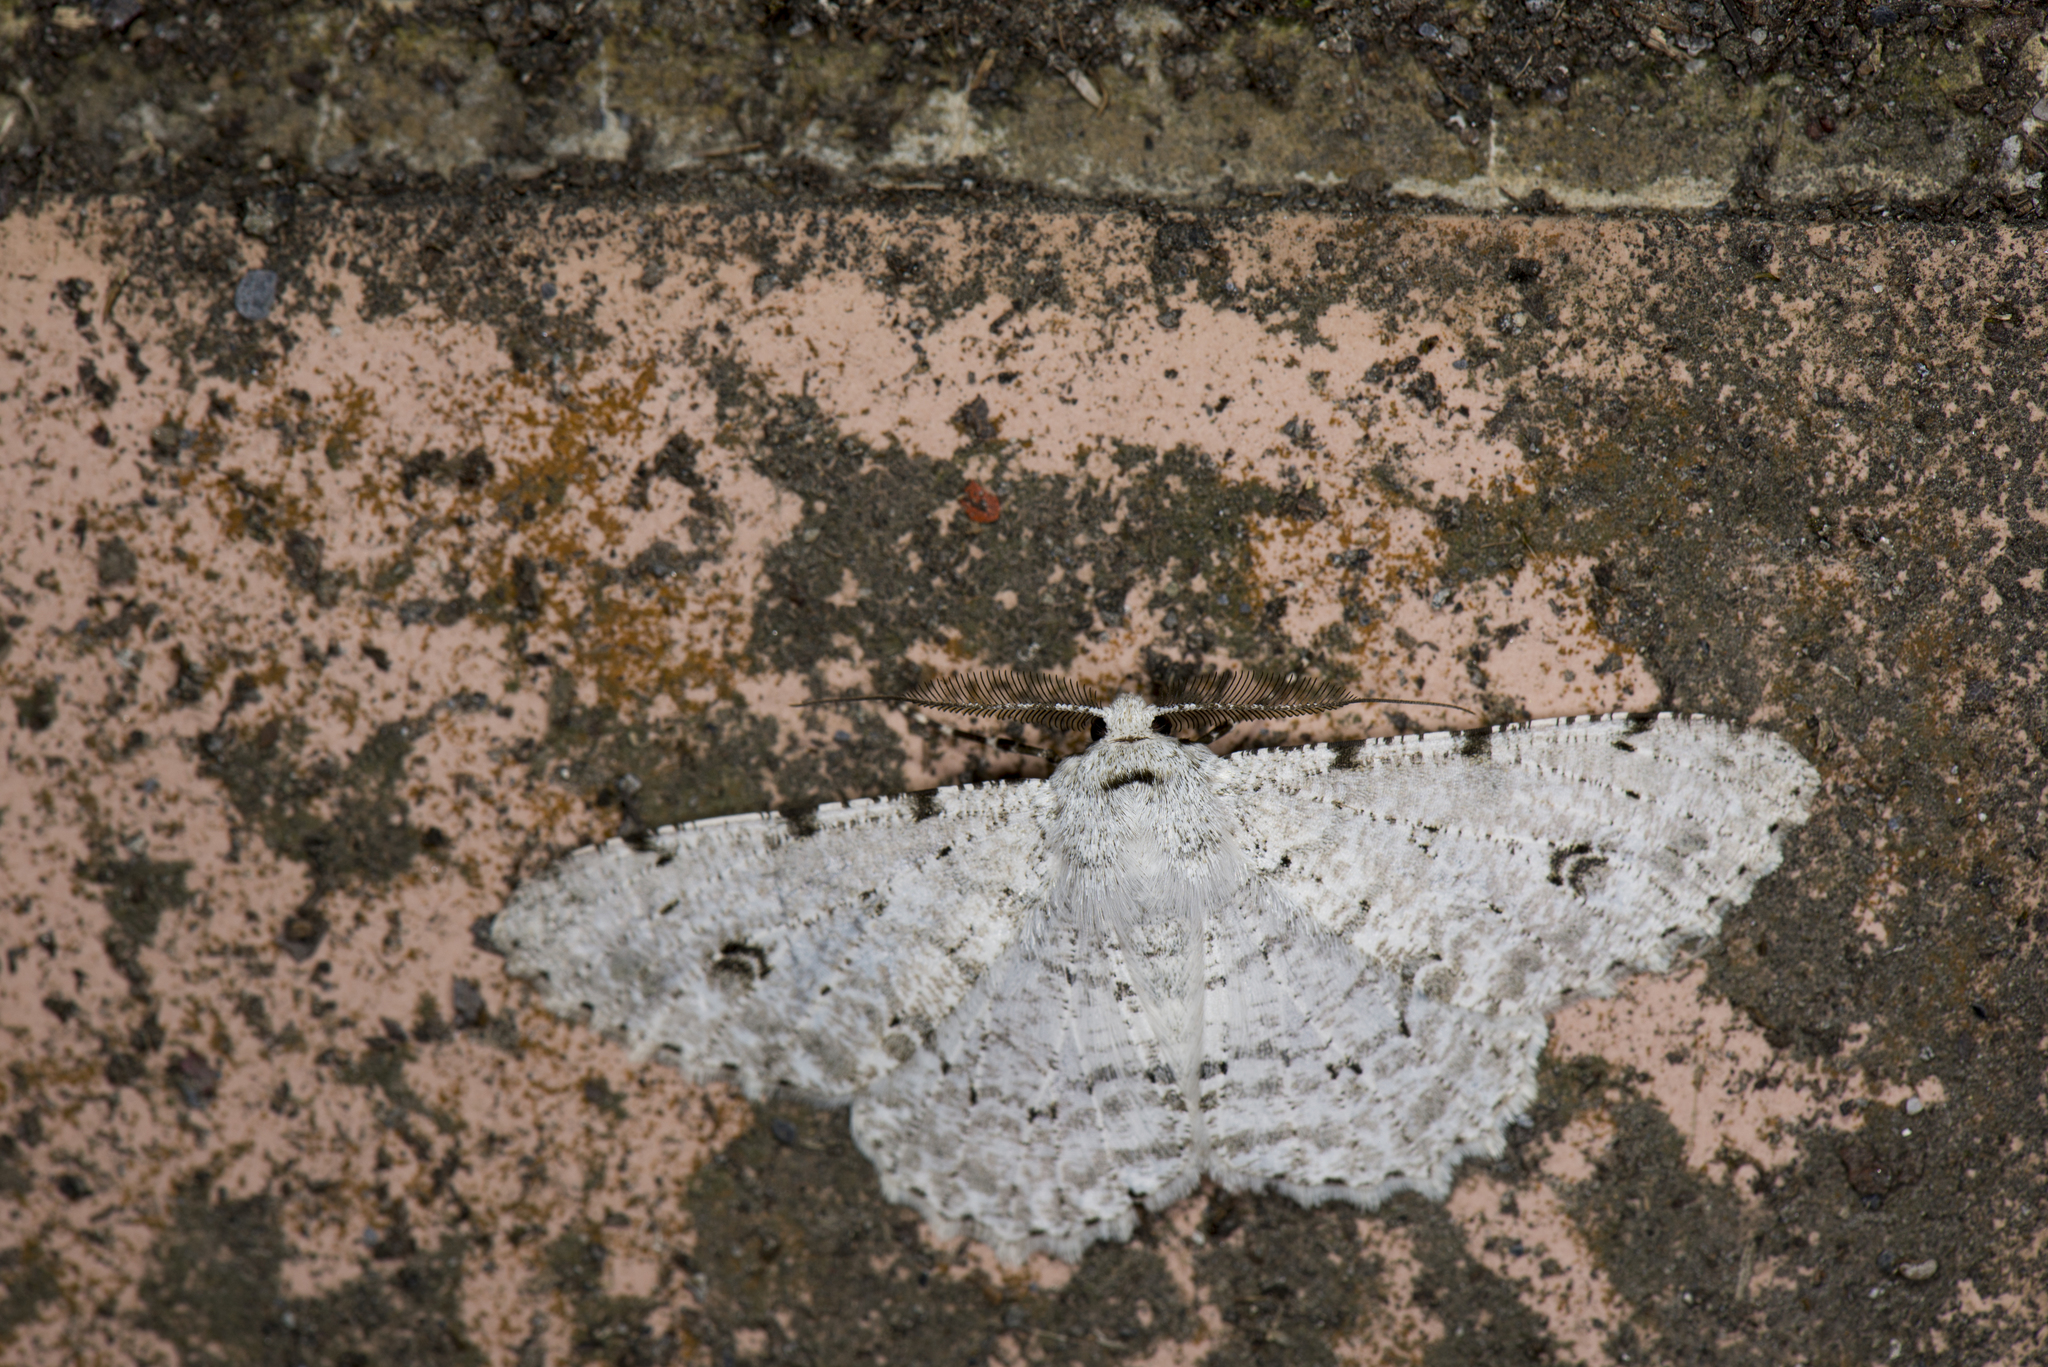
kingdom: Animalia
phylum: Arthropoda
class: Insecta
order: Lepidoptera
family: Geometridae
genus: Lassaba
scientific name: Lassaba parvalbidaria
